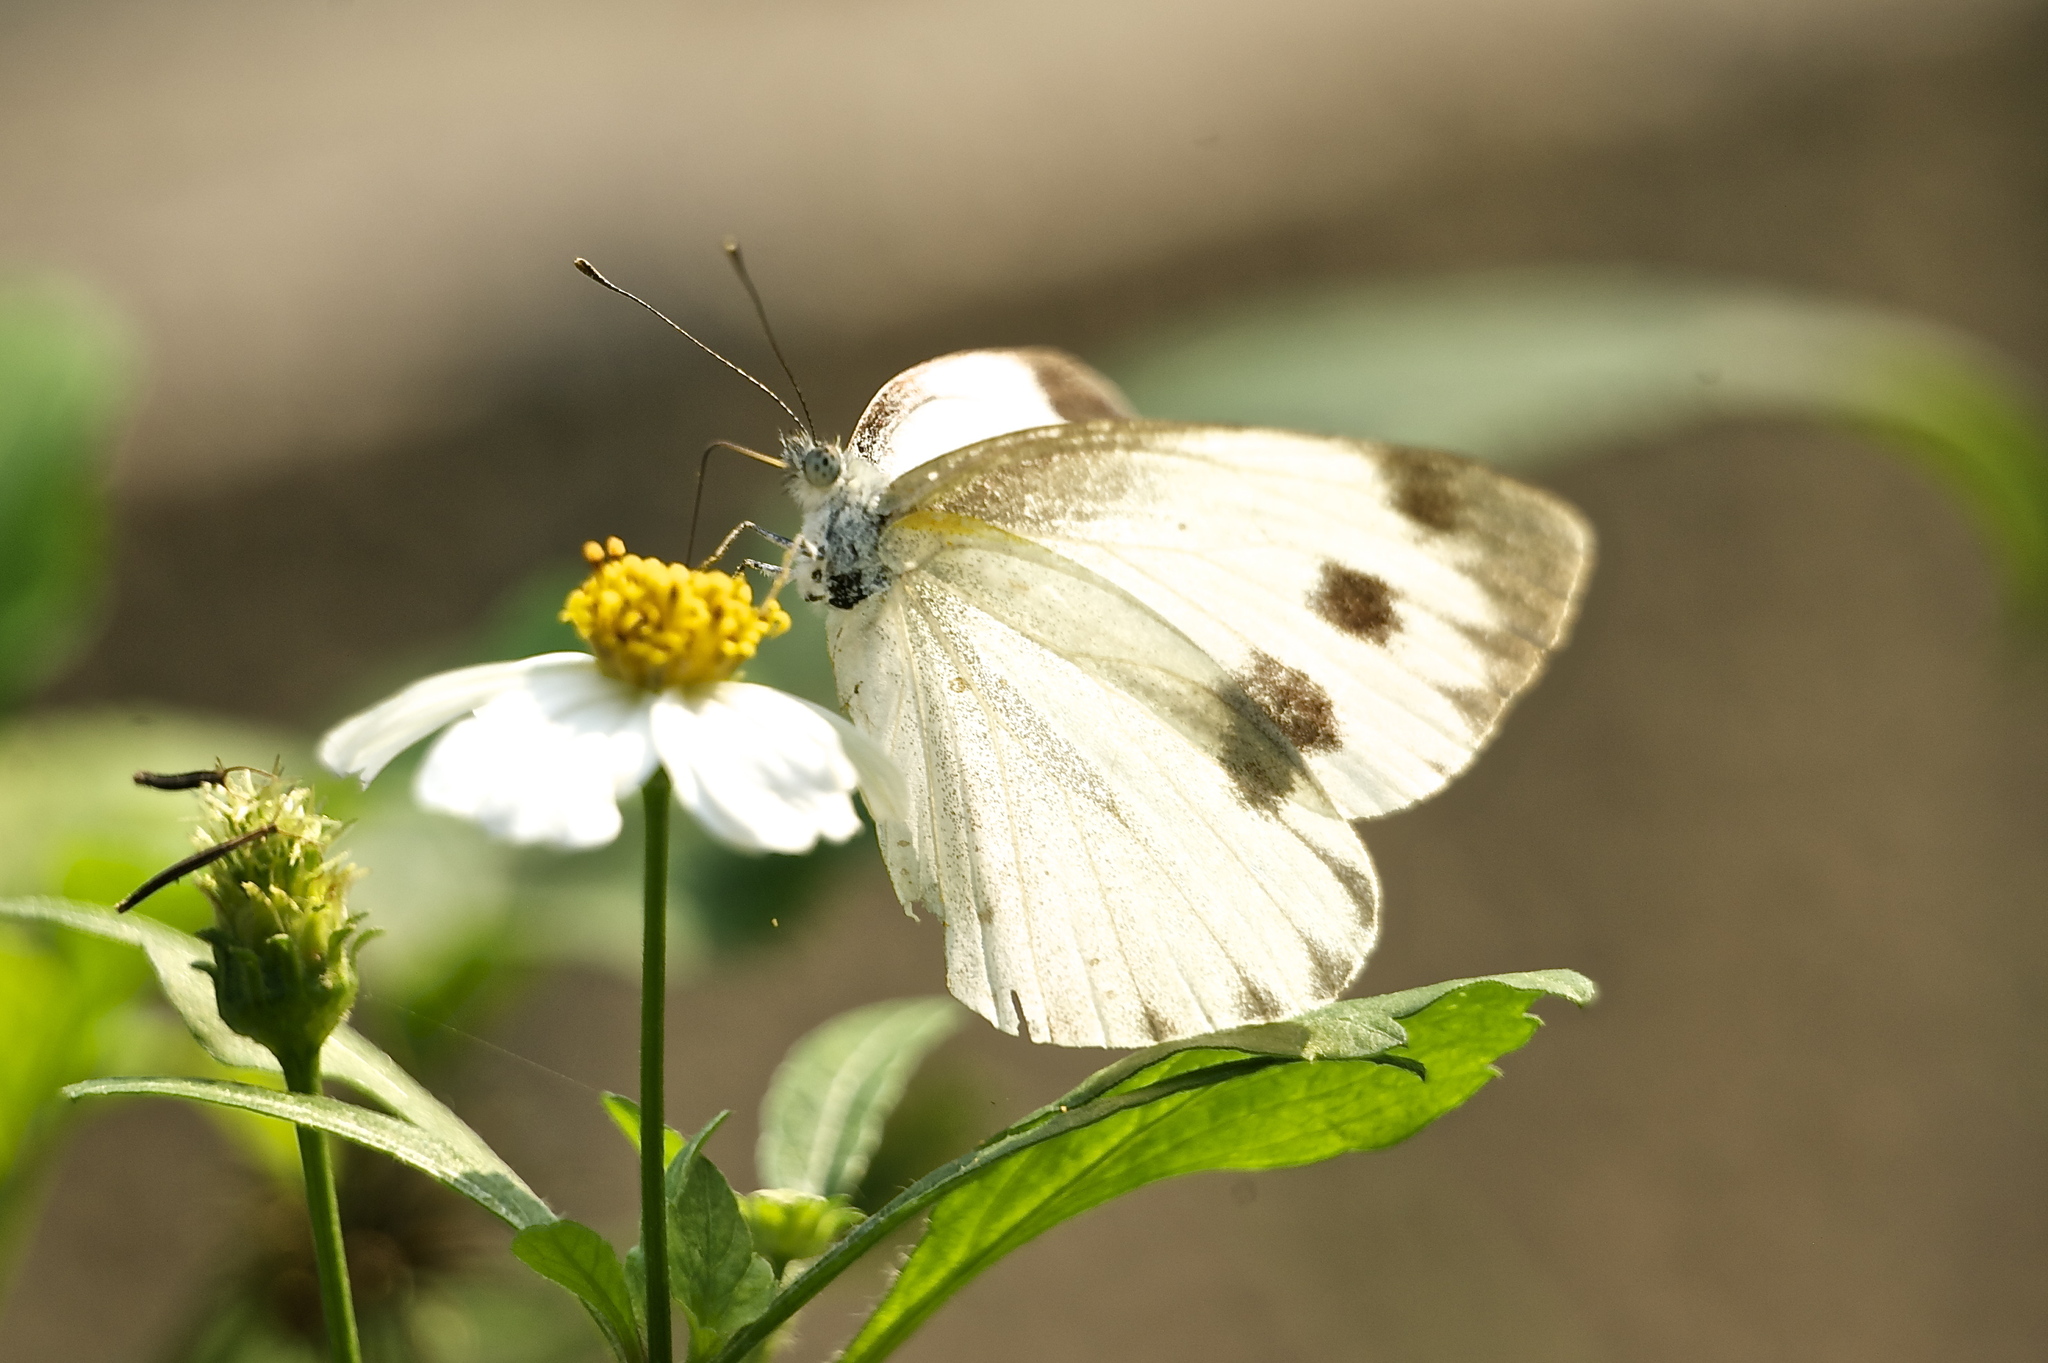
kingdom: Animalia
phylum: Arthropoda
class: Insecta
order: Lepidoptera
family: Pieridae
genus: Pieris
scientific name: Pieris canidia
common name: Indian cabbage white
